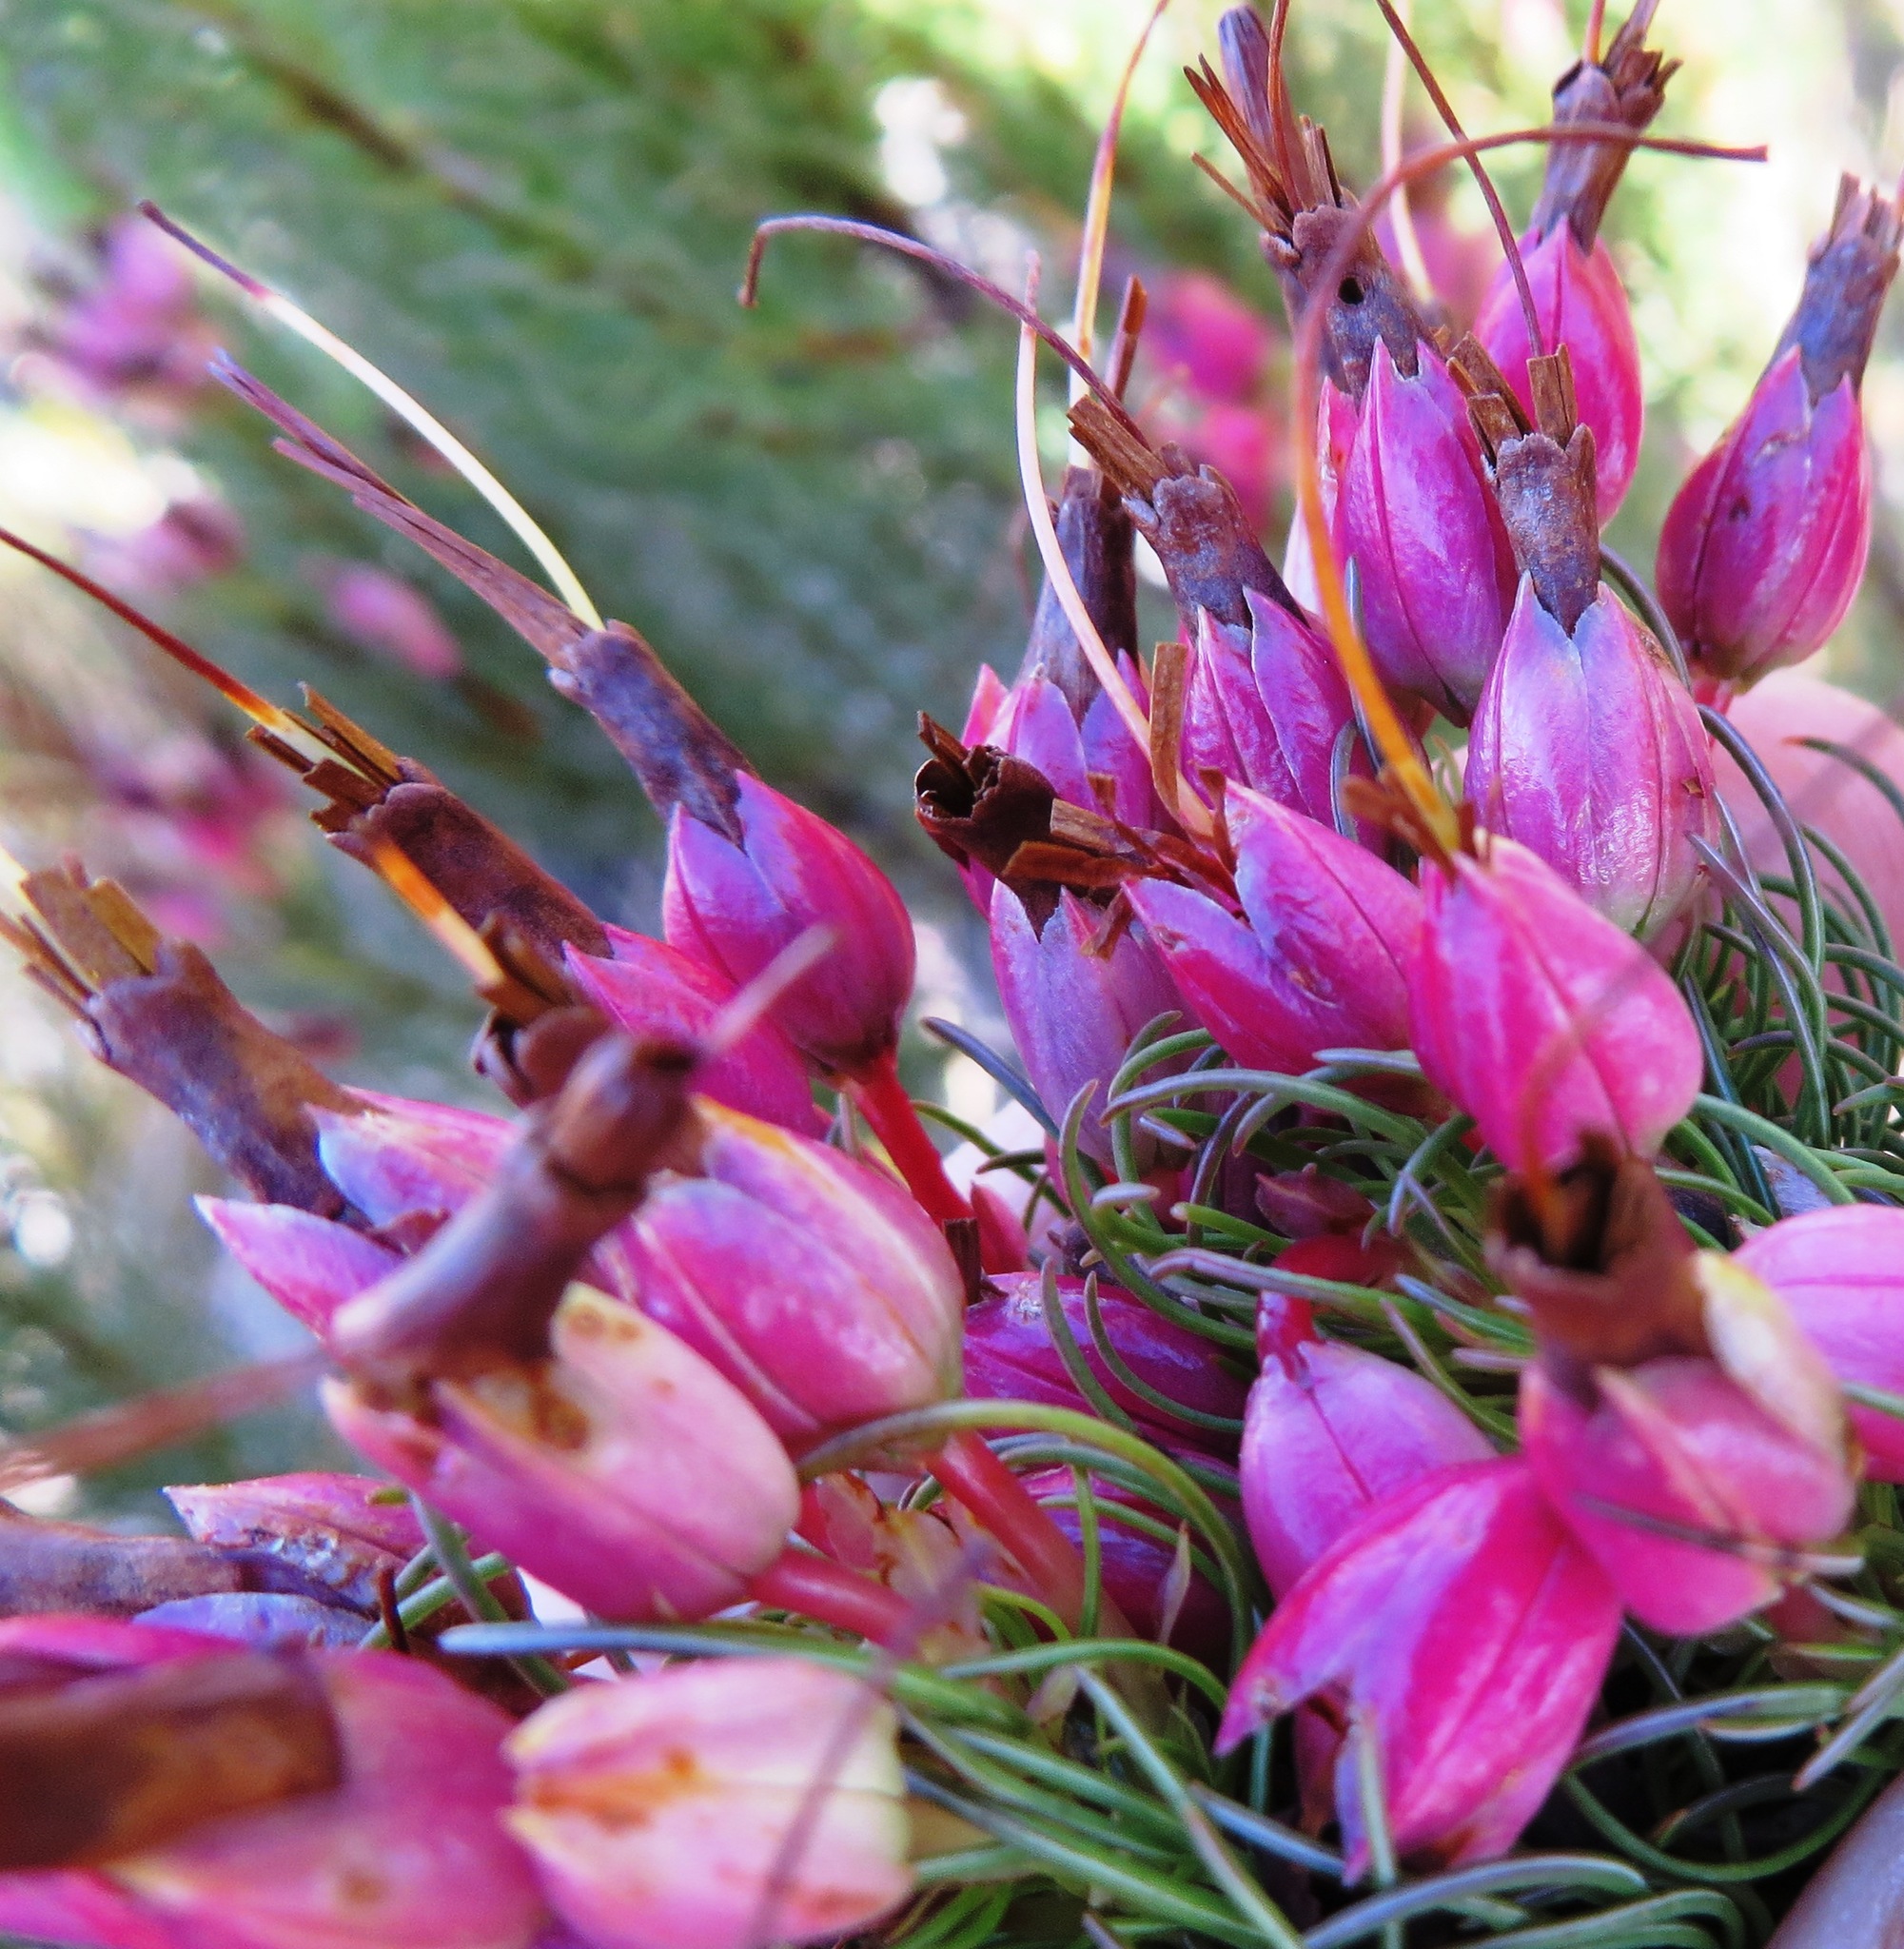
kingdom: Plantae
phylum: Tracheophyta
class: Magnoliopsida
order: Ericales
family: Ericaceae
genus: Erica
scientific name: Erica plukenetii
